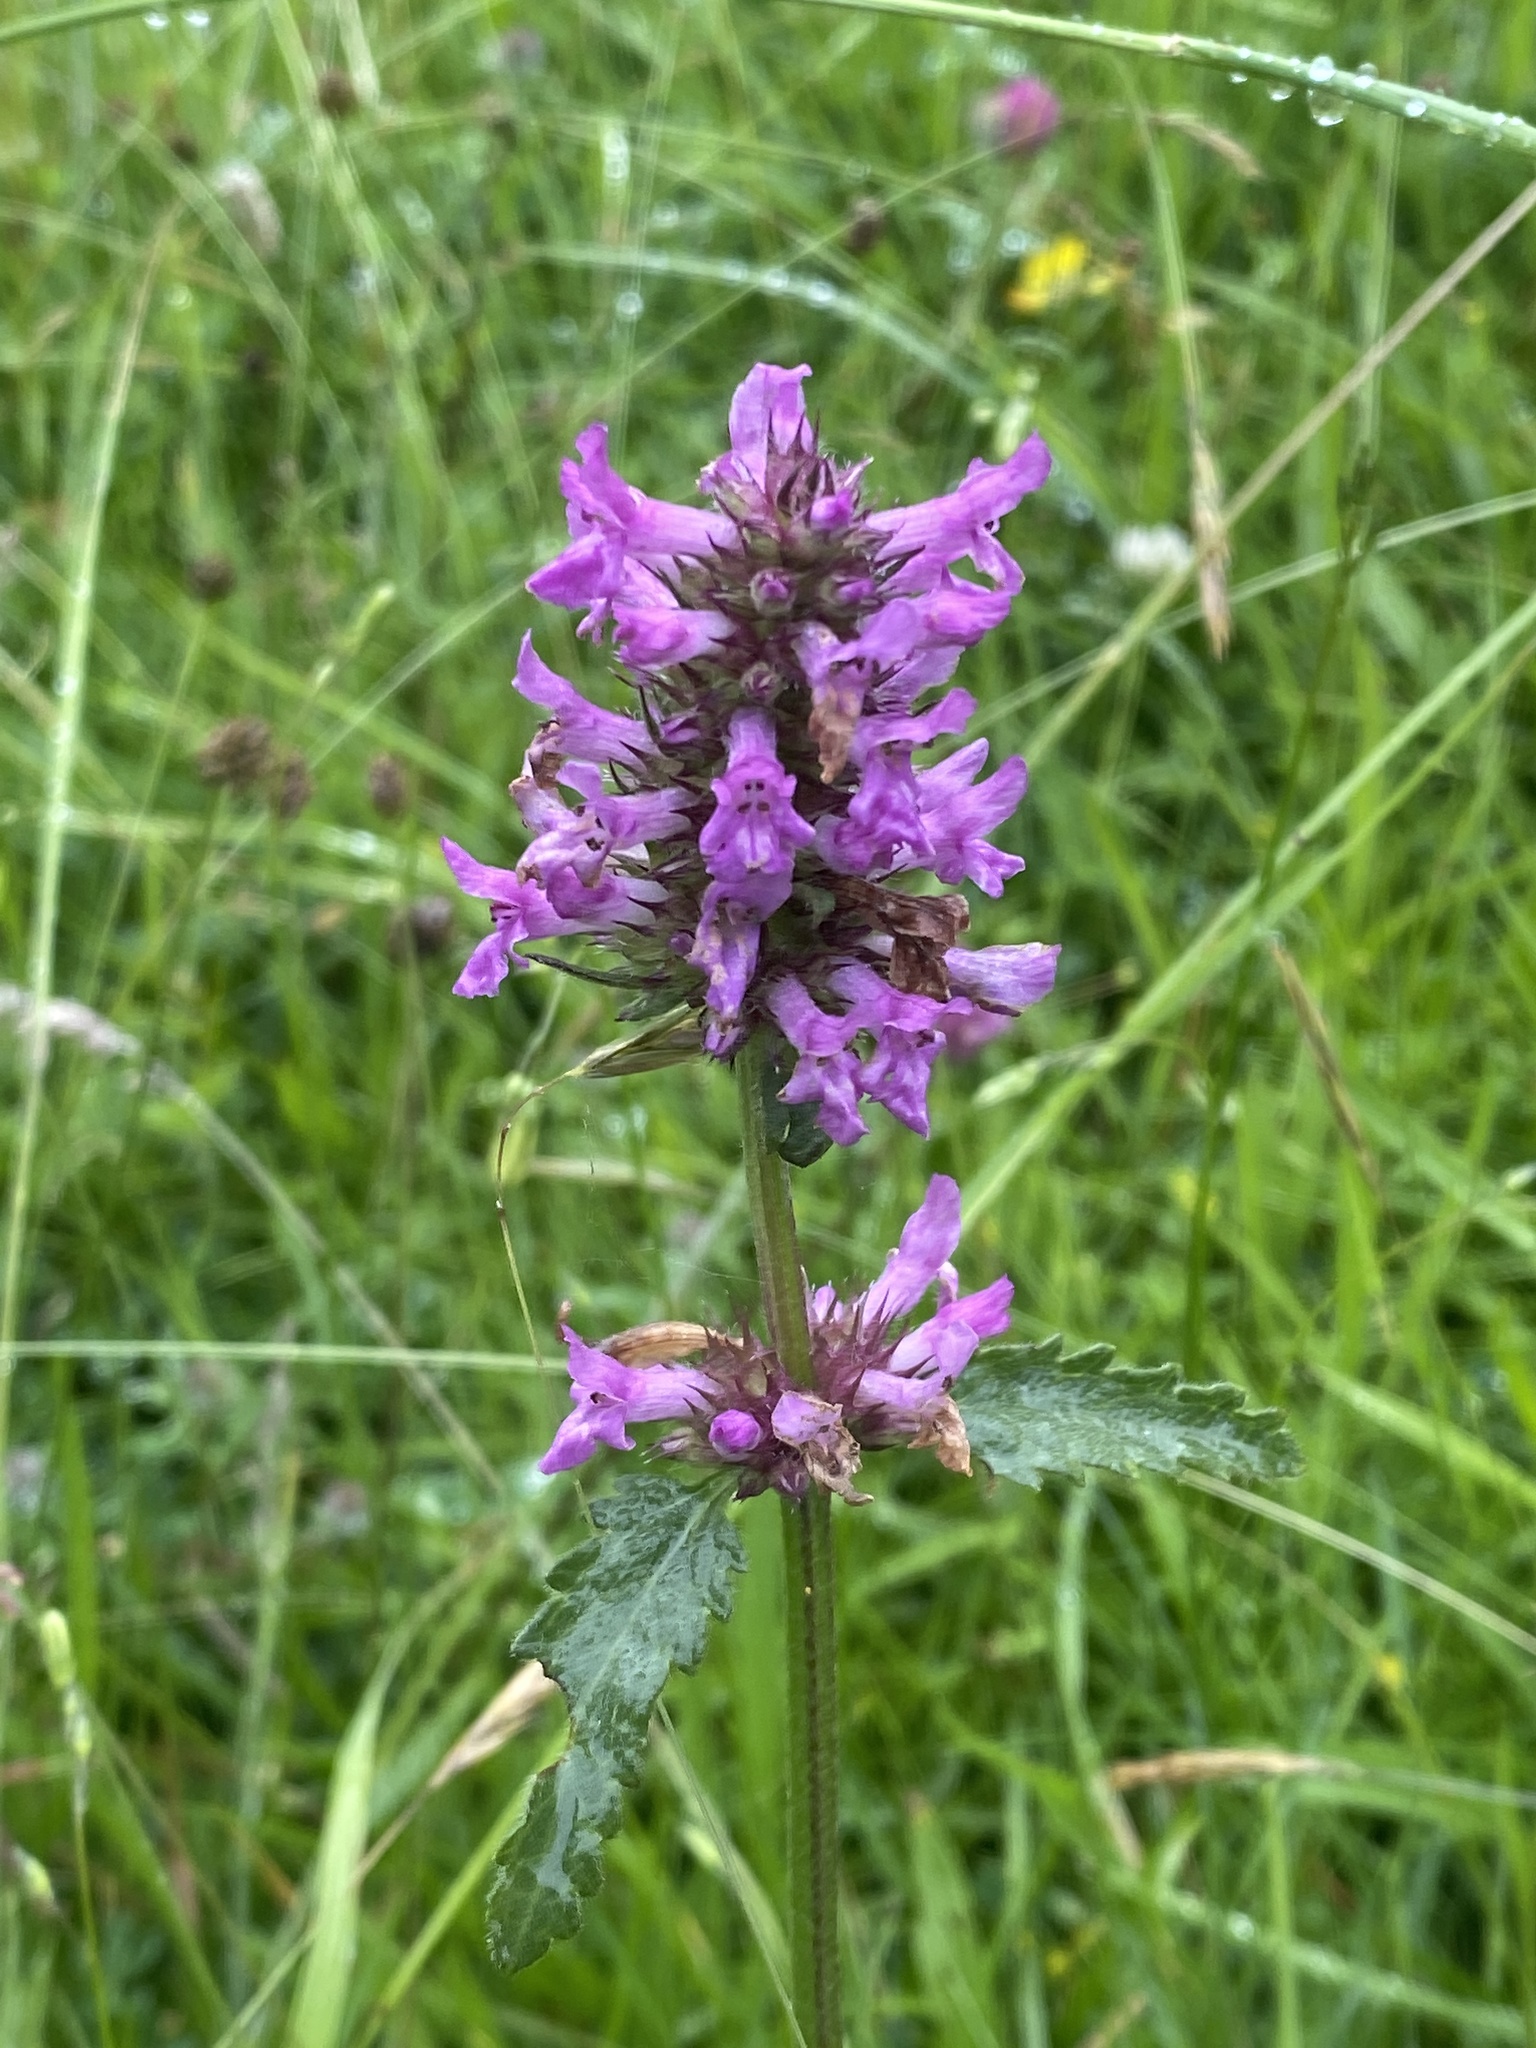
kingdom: Plantae
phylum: Tracheophyta
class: Magnoliopsida
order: Lamiales
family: Lamiaceae
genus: Betonica
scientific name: Betonica officinalis
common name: Bishop's-wort
